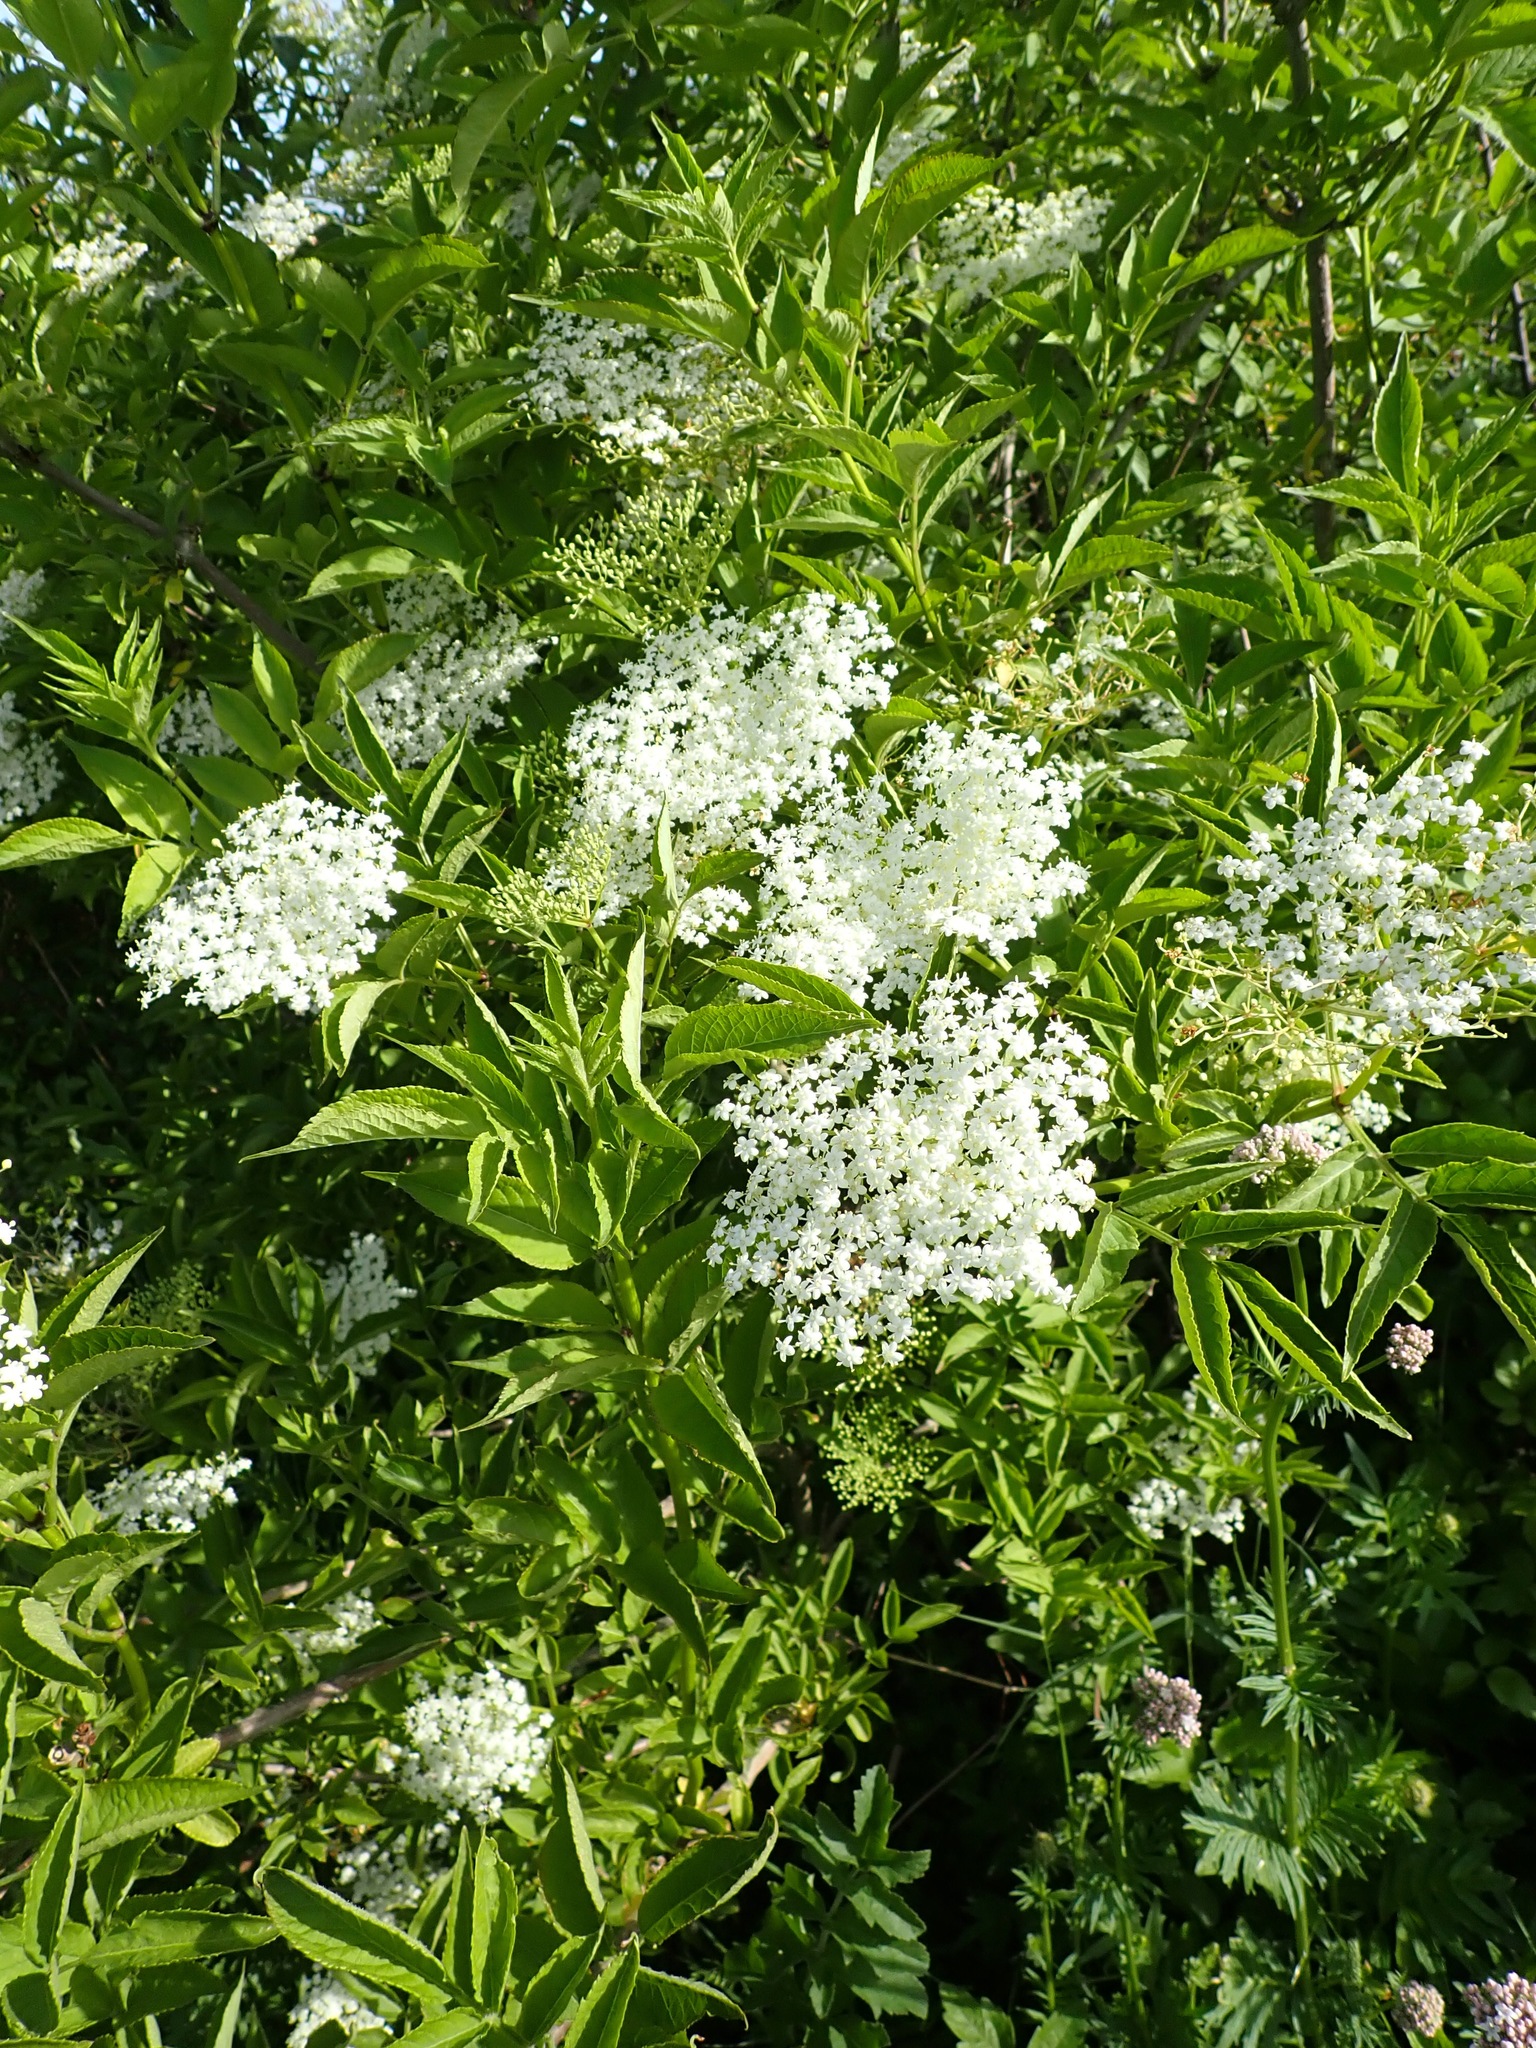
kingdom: Plantae
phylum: Tracheophyta
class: Magnoliopsida
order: Dipsacales
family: Viburnaceae
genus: Sambucus
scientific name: Sambucus nigra
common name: Elder
